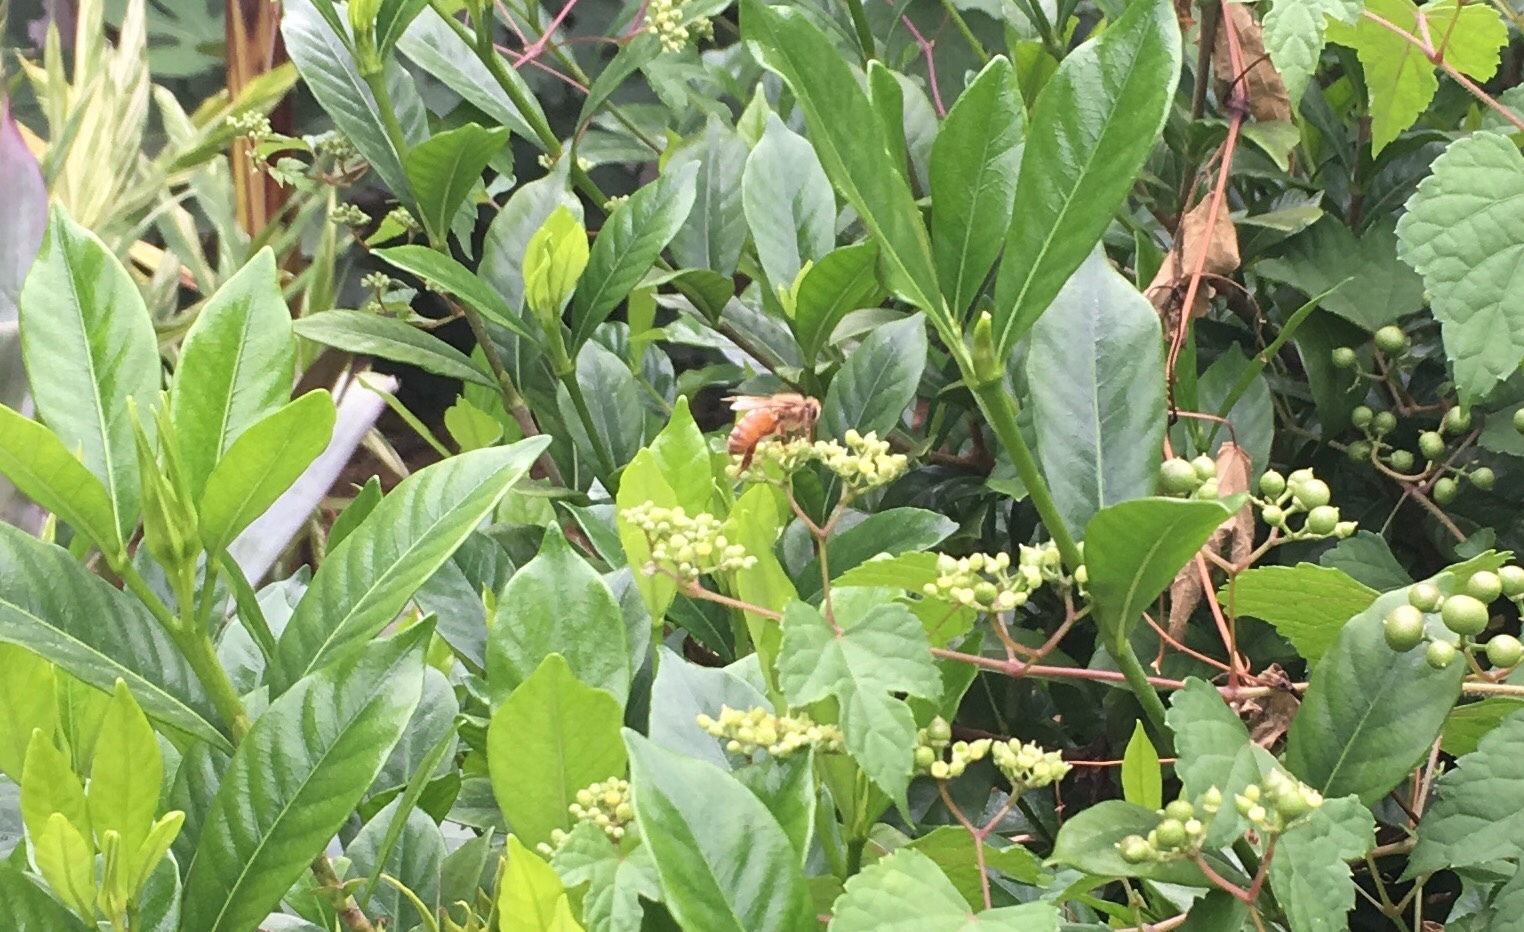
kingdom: Animalia
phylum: Arthropoda
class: Insecta
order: Hymenoptera
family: Apidae
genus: Apis
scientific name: Apis mellifera
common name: Honey bee
